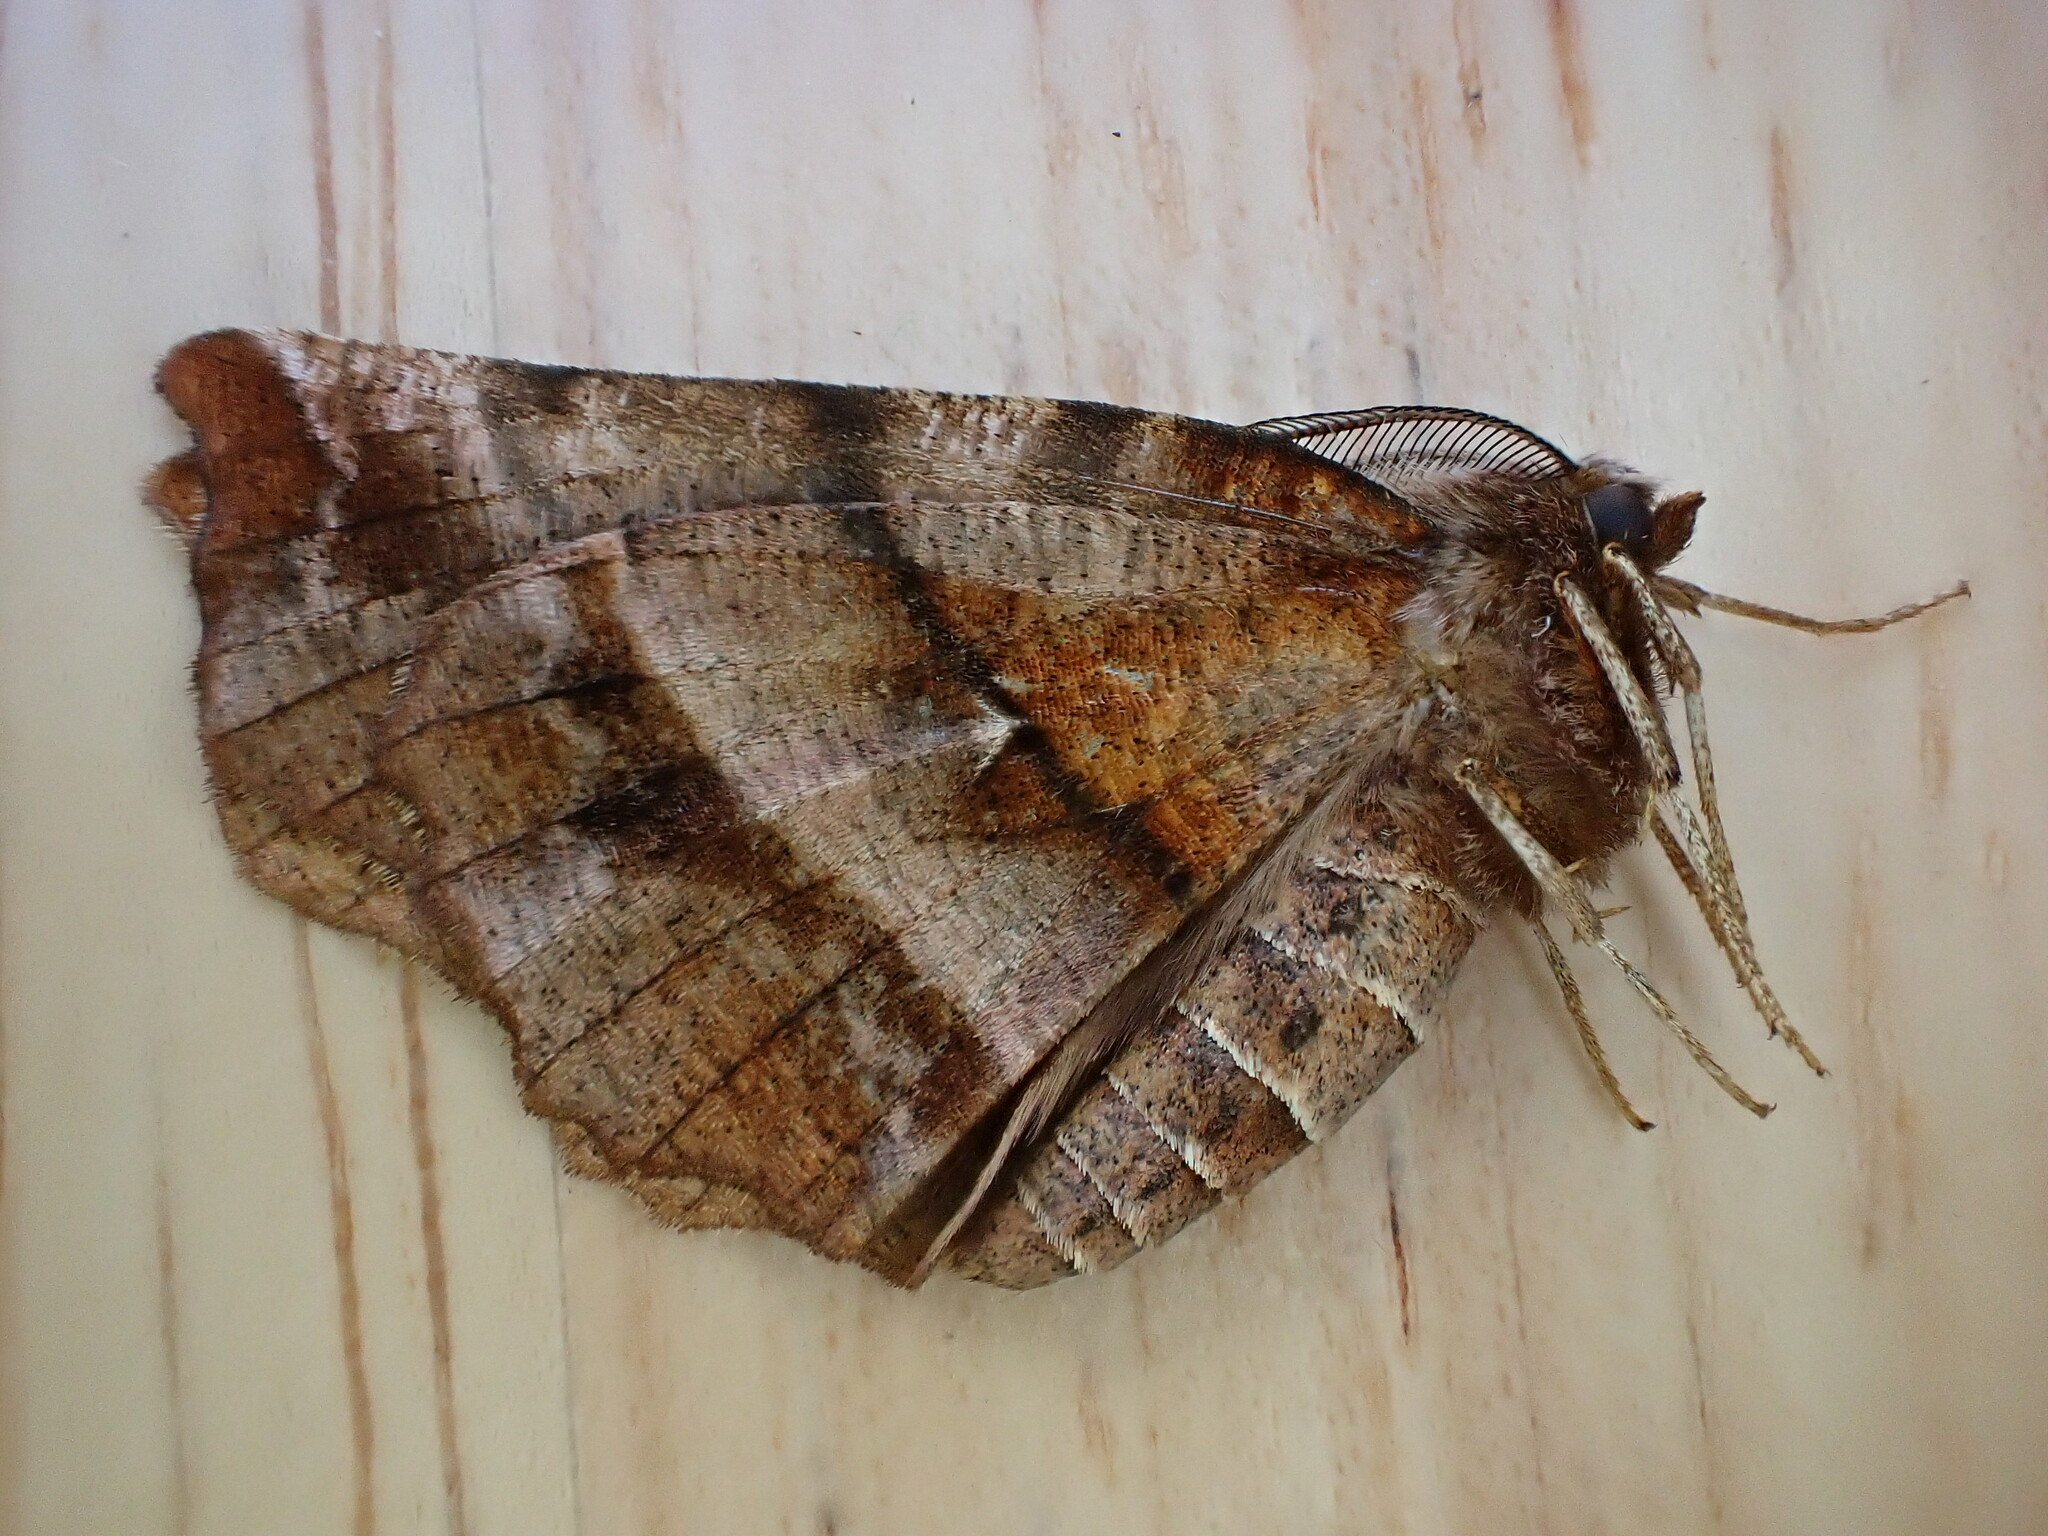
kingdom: Animalia
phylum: Arthropoda
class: Insecta
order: Lepidoptera
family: Geometridae
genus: Selenia
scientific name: Selenia dentaria
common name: Early thorn
